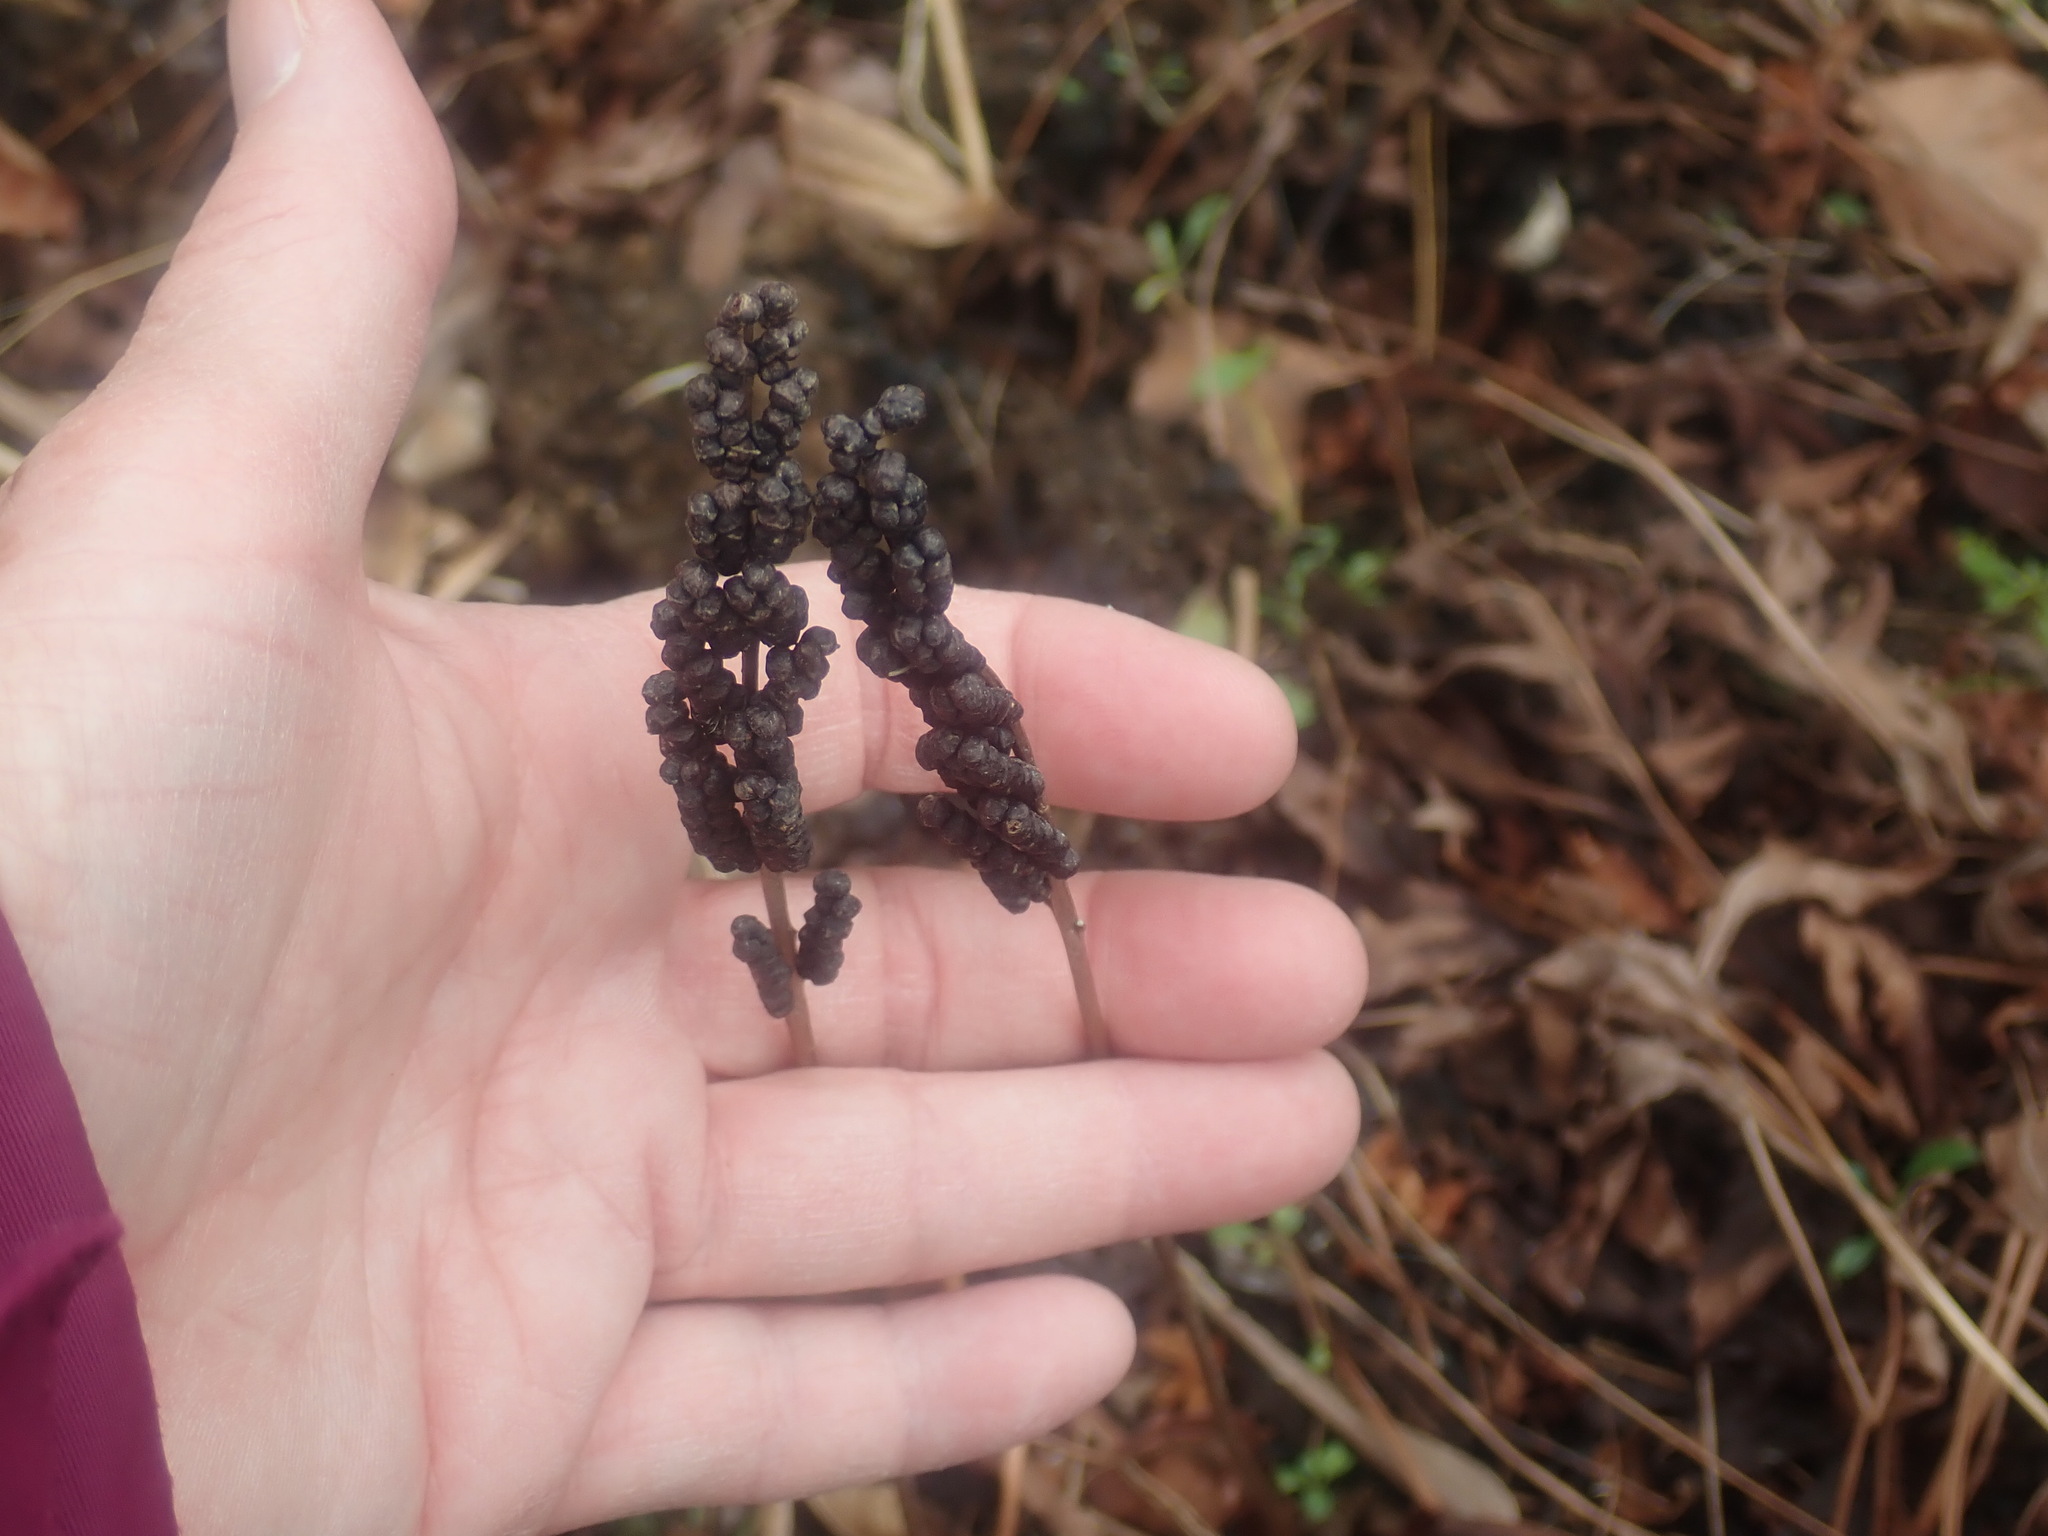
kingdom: Plantae
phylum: Tracheophyta
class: Polypodiopsida
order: Polypodiales
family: Onocleaceae
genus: Onoclea
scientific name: Onoclea sensibilis
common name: Sensitive fern
